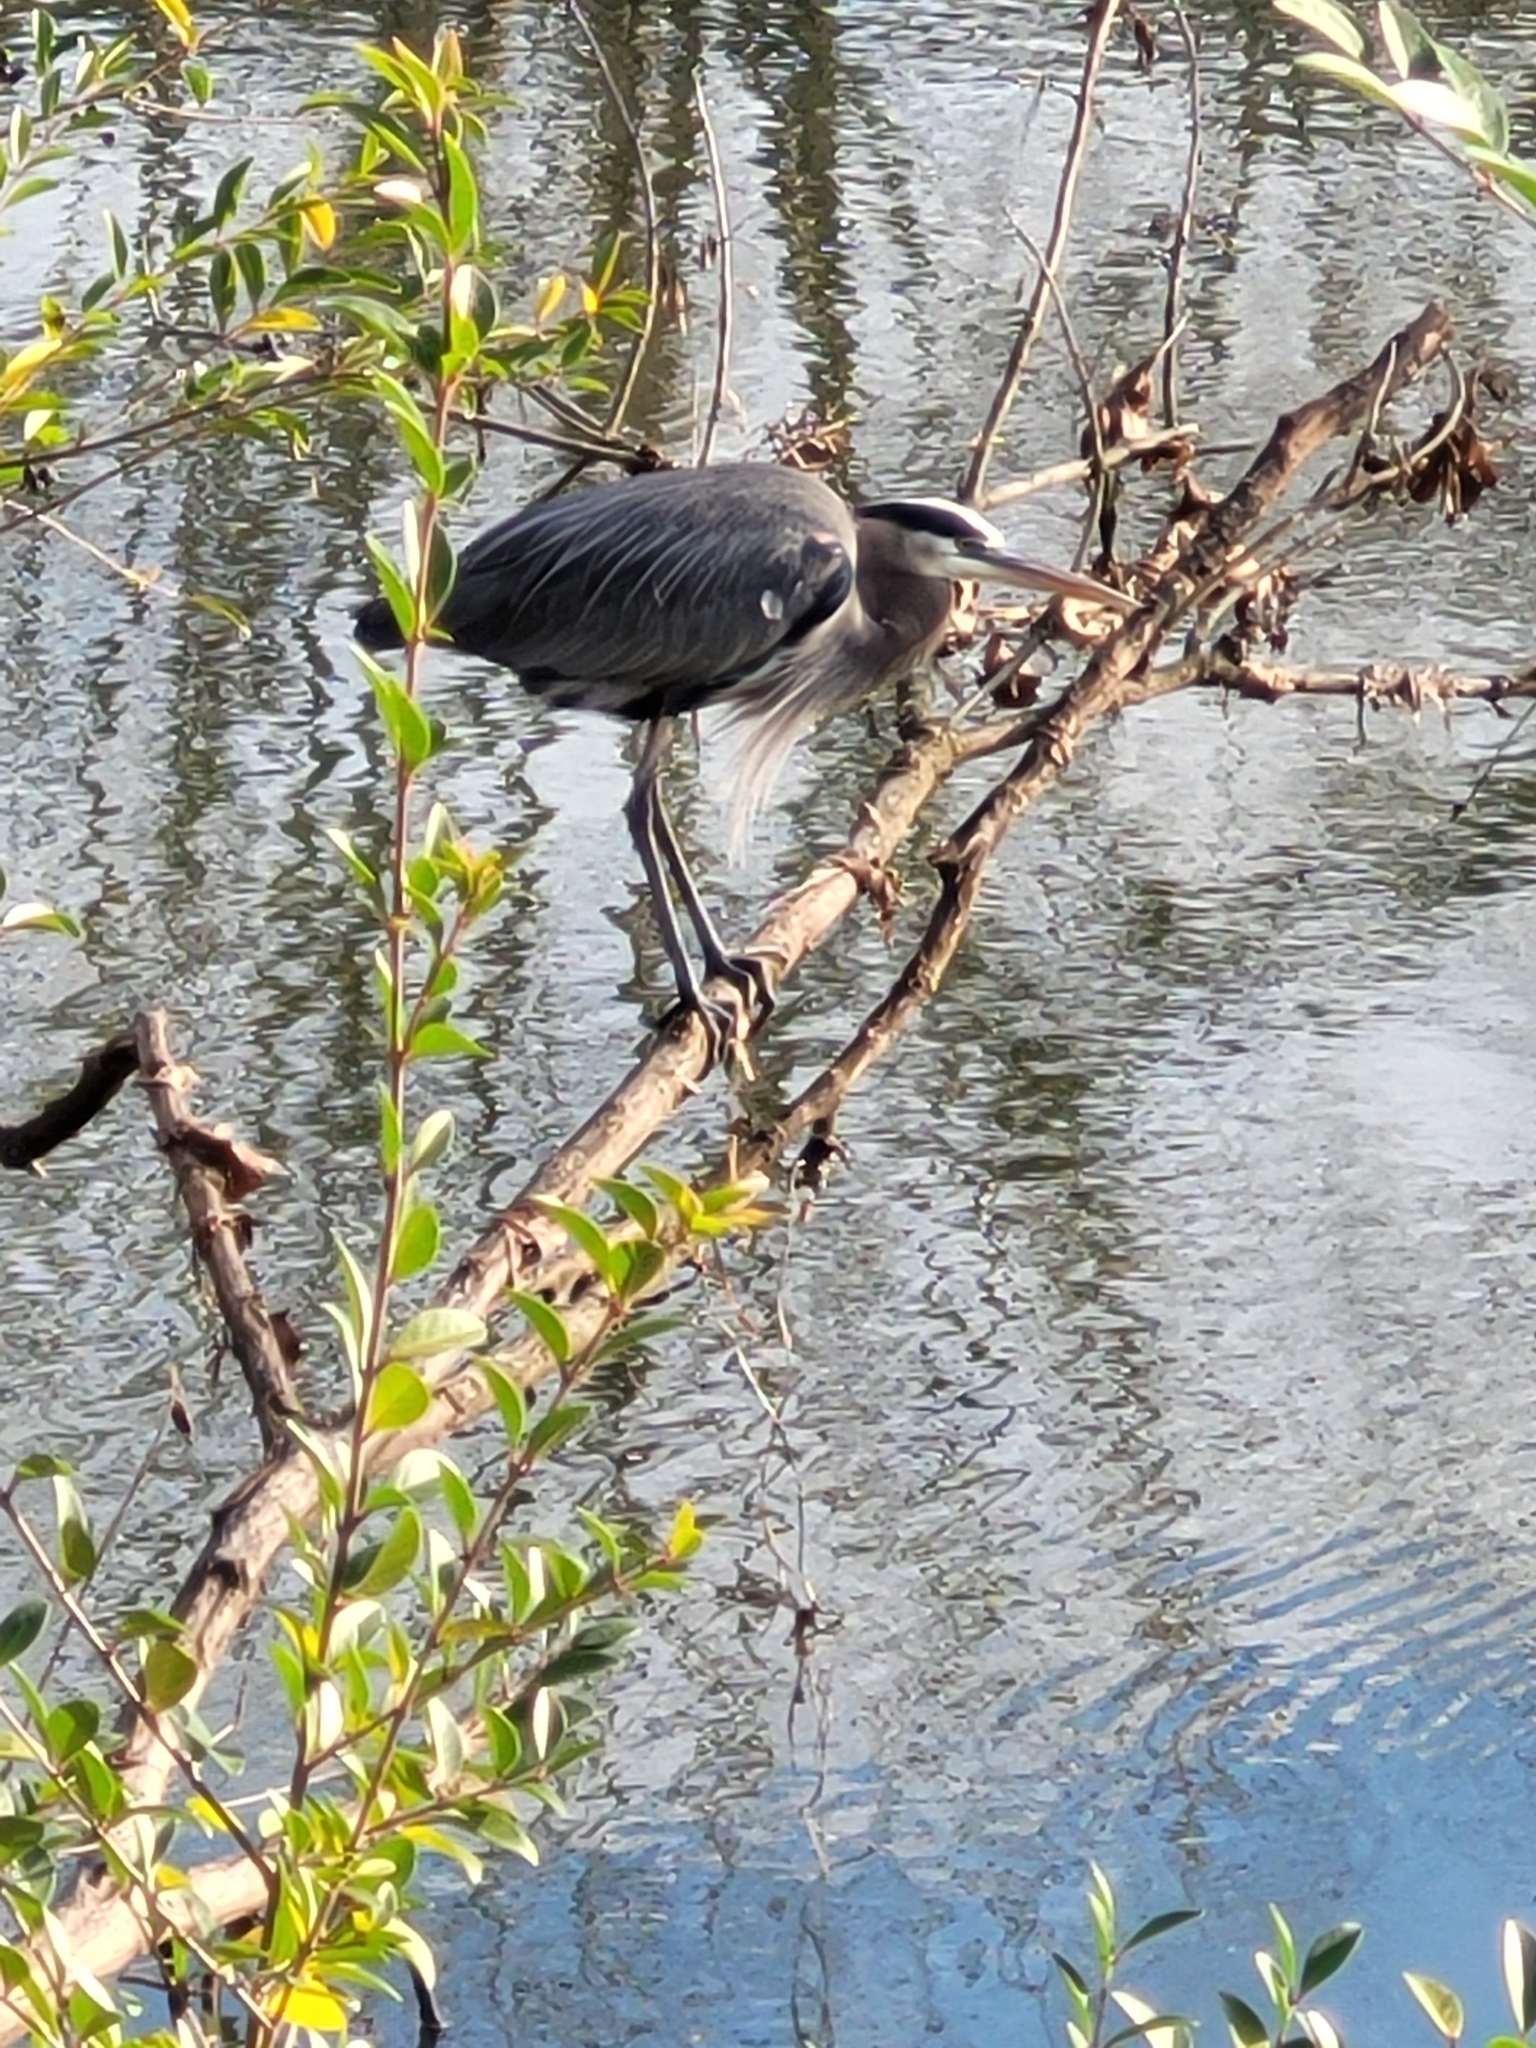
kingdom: Animalia
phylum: Chordata
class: Aves
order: Pelecaniformes
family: Ardeidae
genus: Ardea
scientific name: Ardea herodias
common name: Great blue heron
